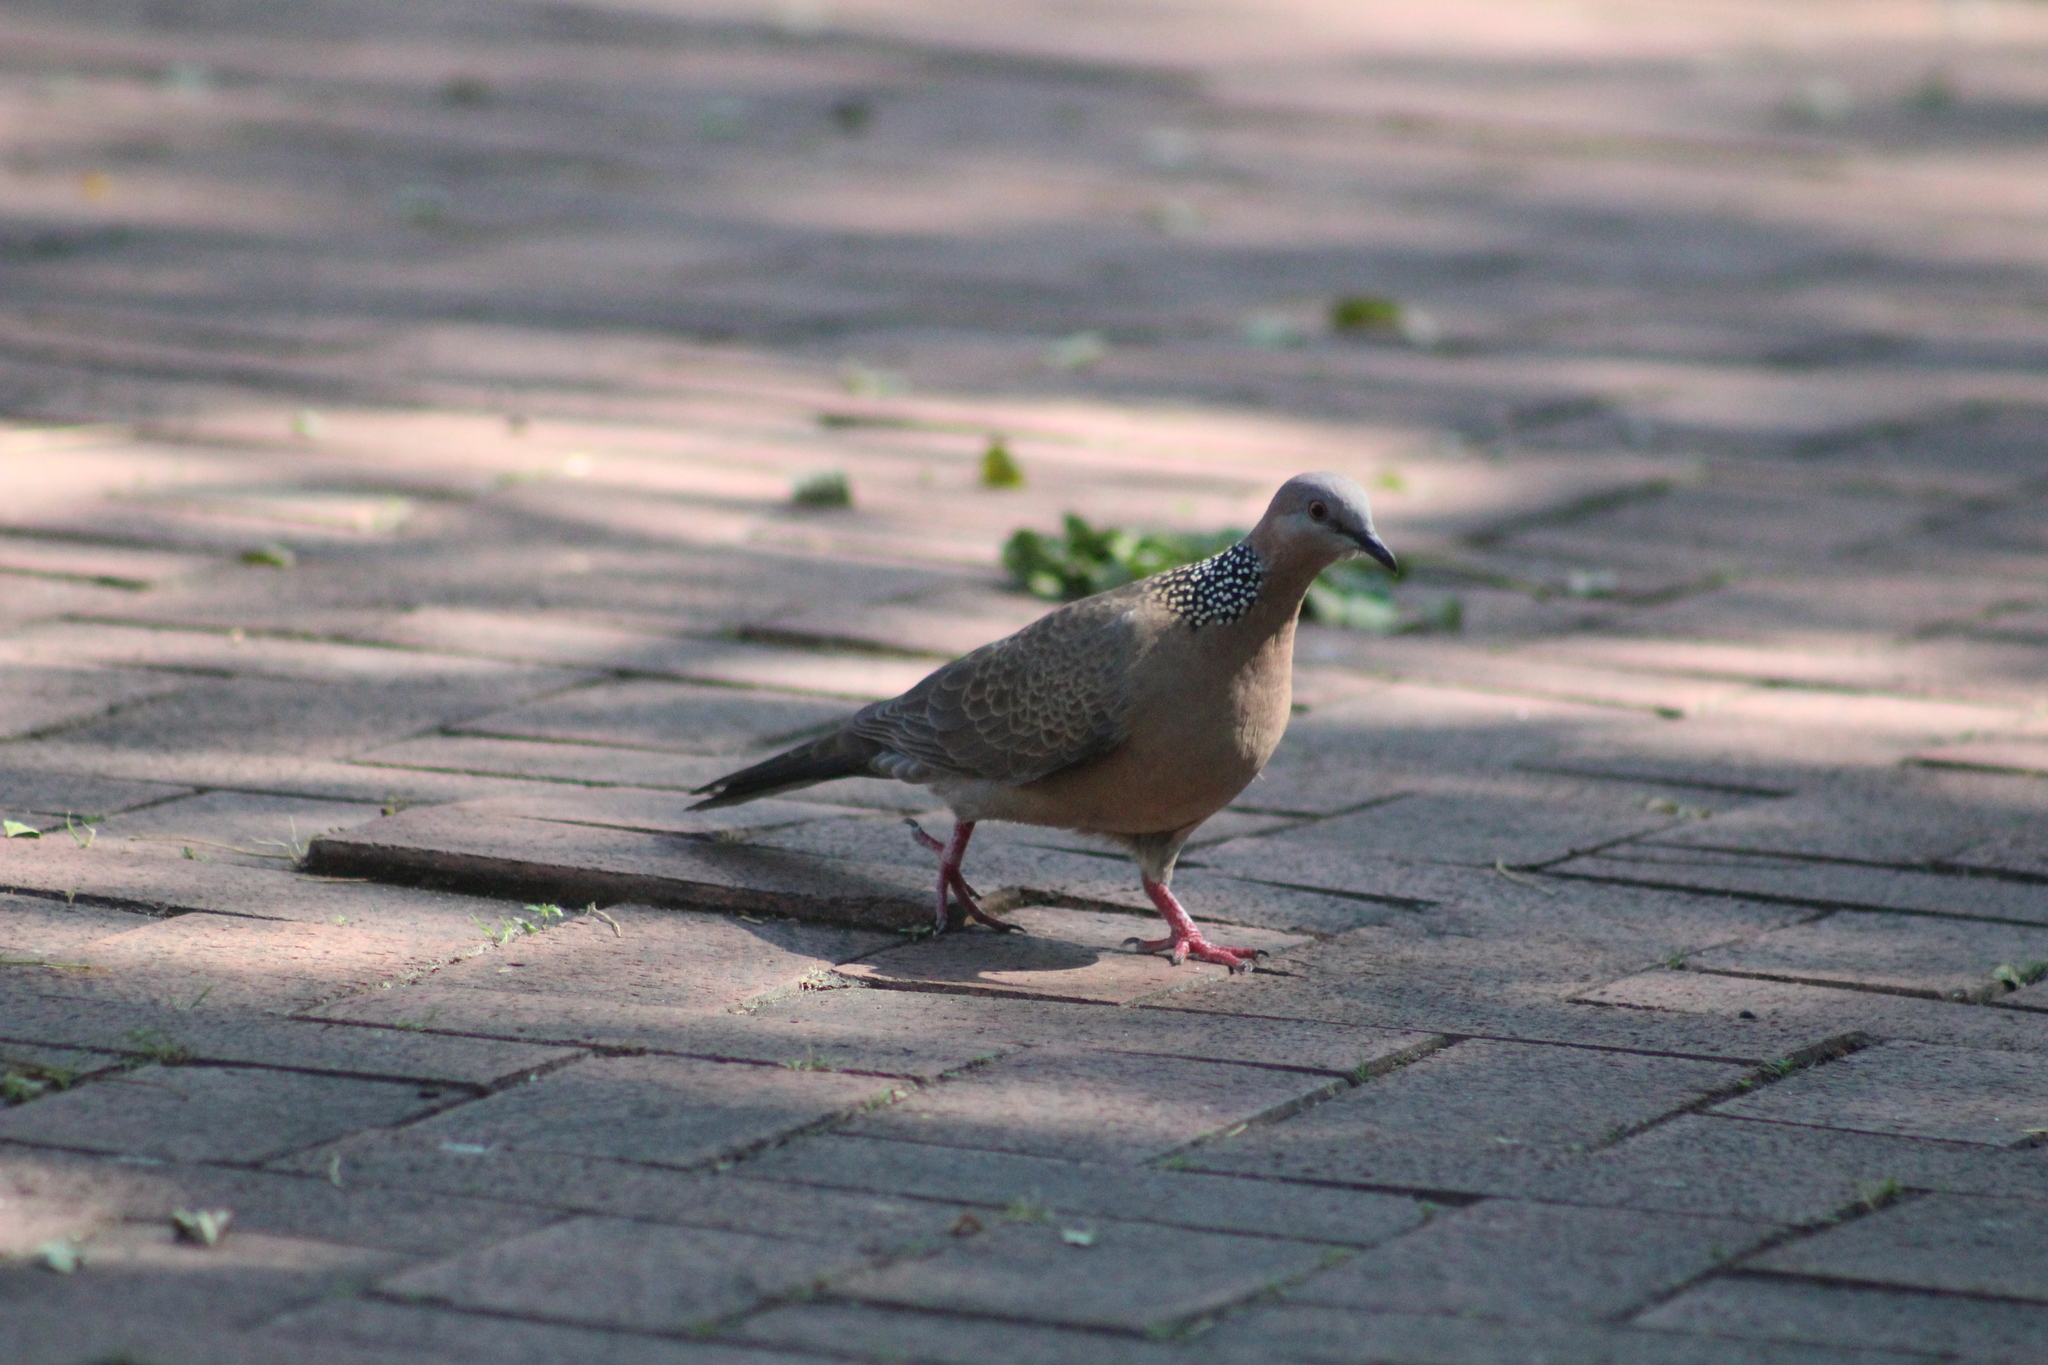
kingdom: Animalia
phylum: Chordata
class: Aves
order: Columbiformes
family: Columbidae
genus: Spilopelia
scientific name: Spilopelia chinensis
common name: Spotted dove
